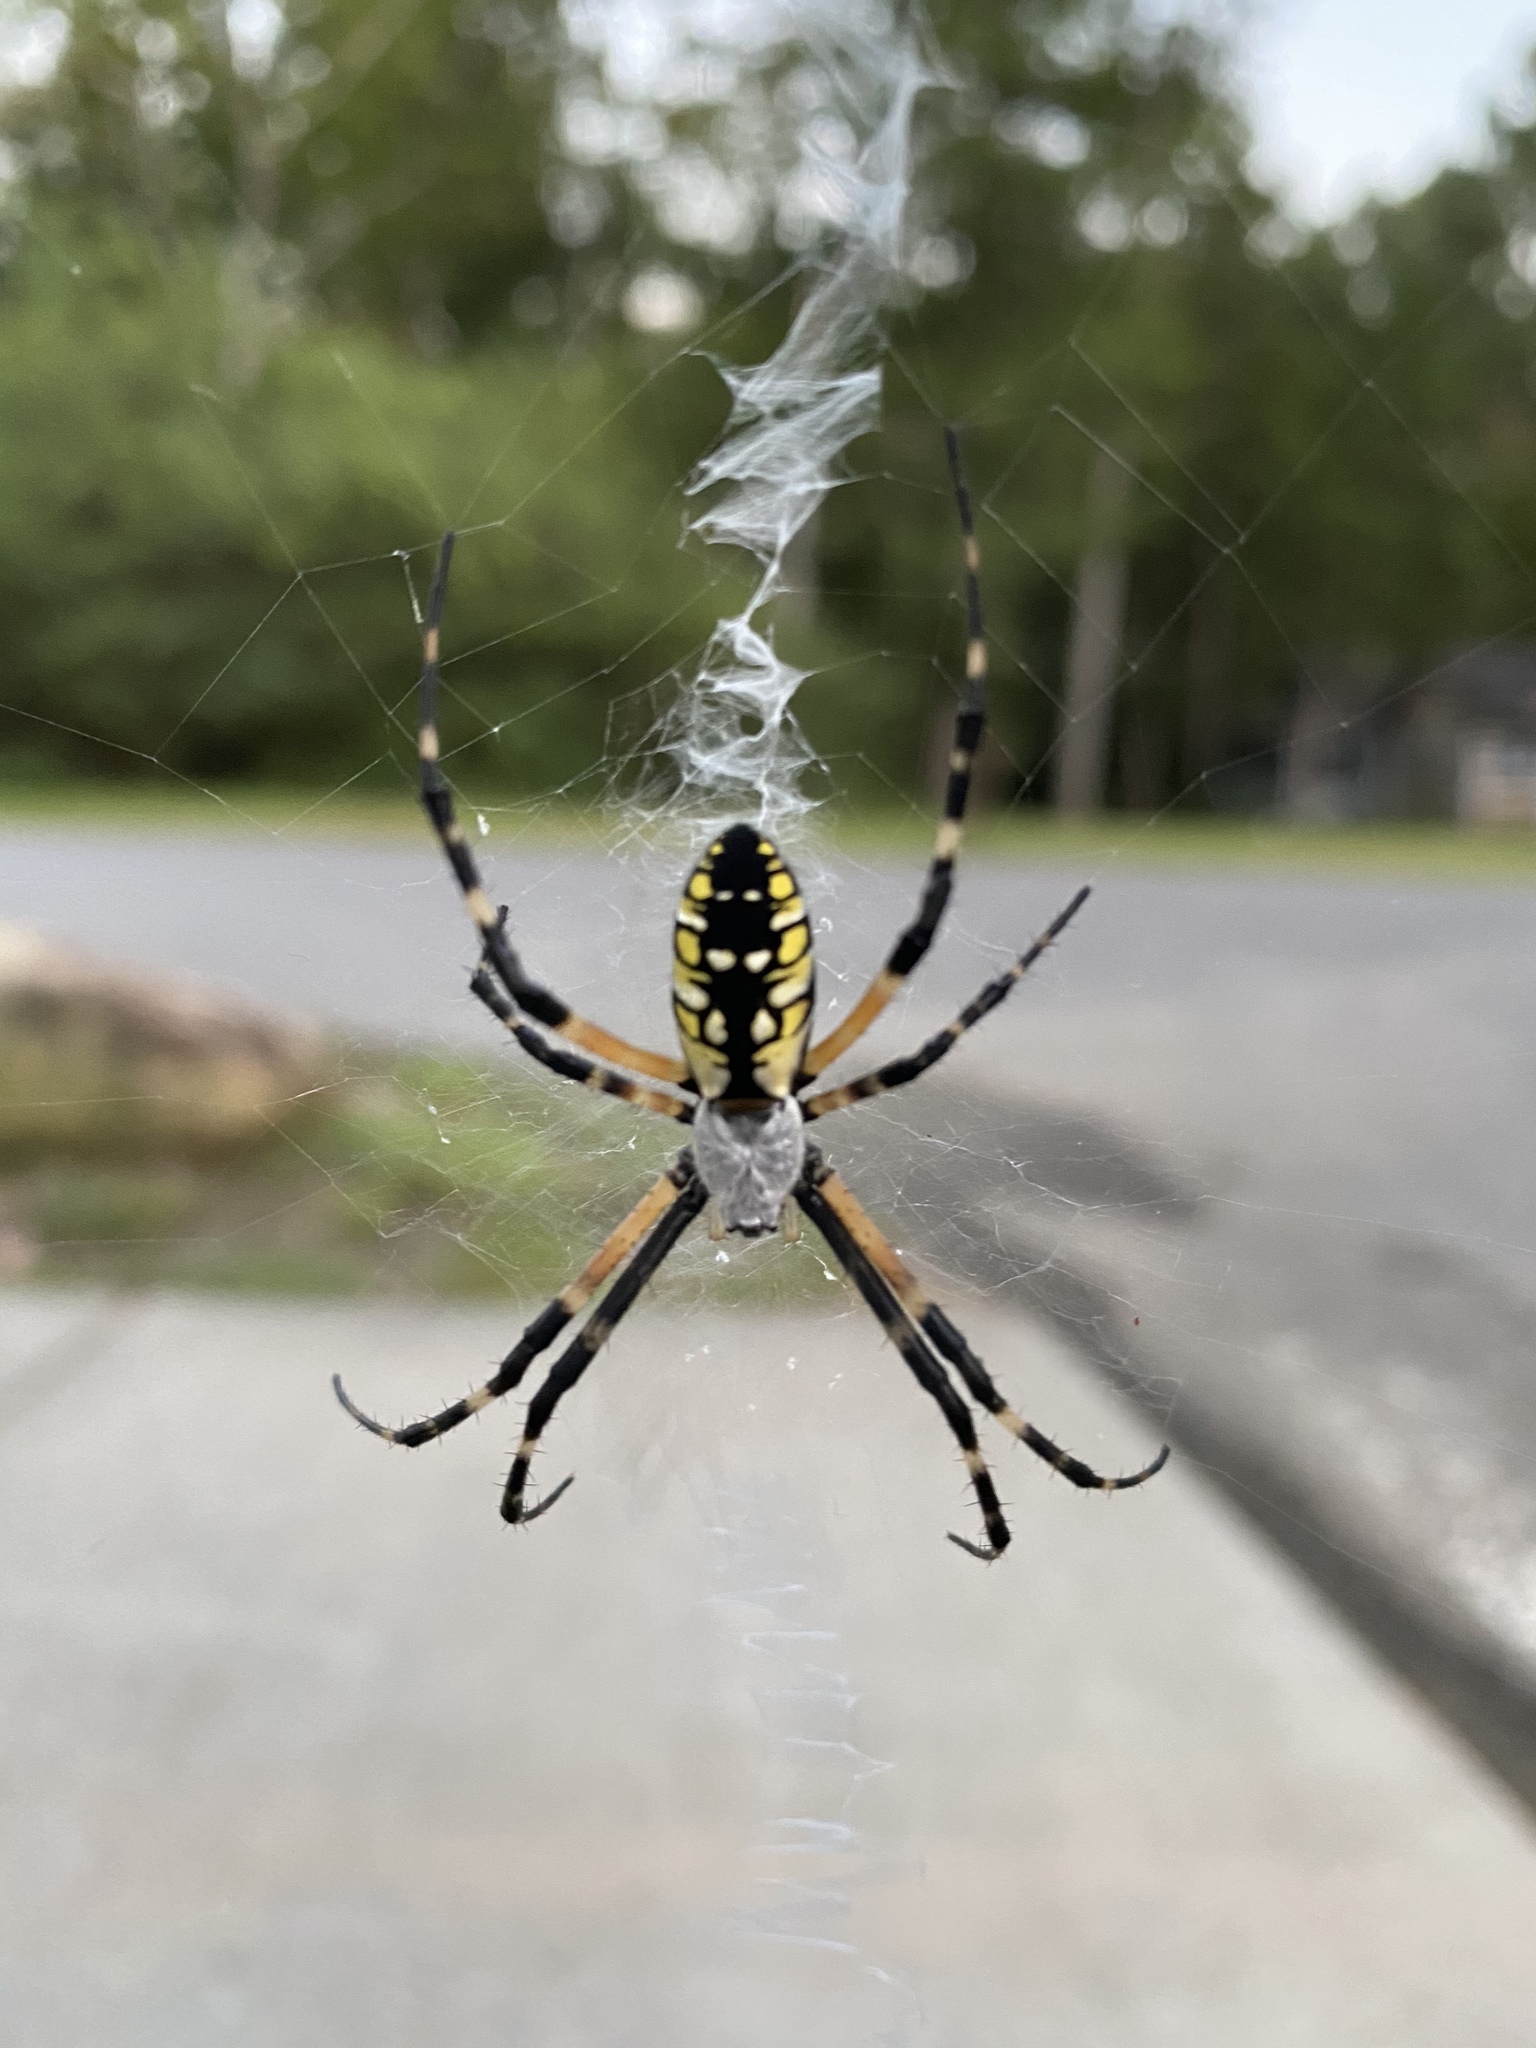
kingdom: Animalia
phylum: Arthropoda
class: Arachnida
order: Araneae
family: Araneidae
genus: Argiope
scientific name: Argiope aurantia
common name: Orb weavers
